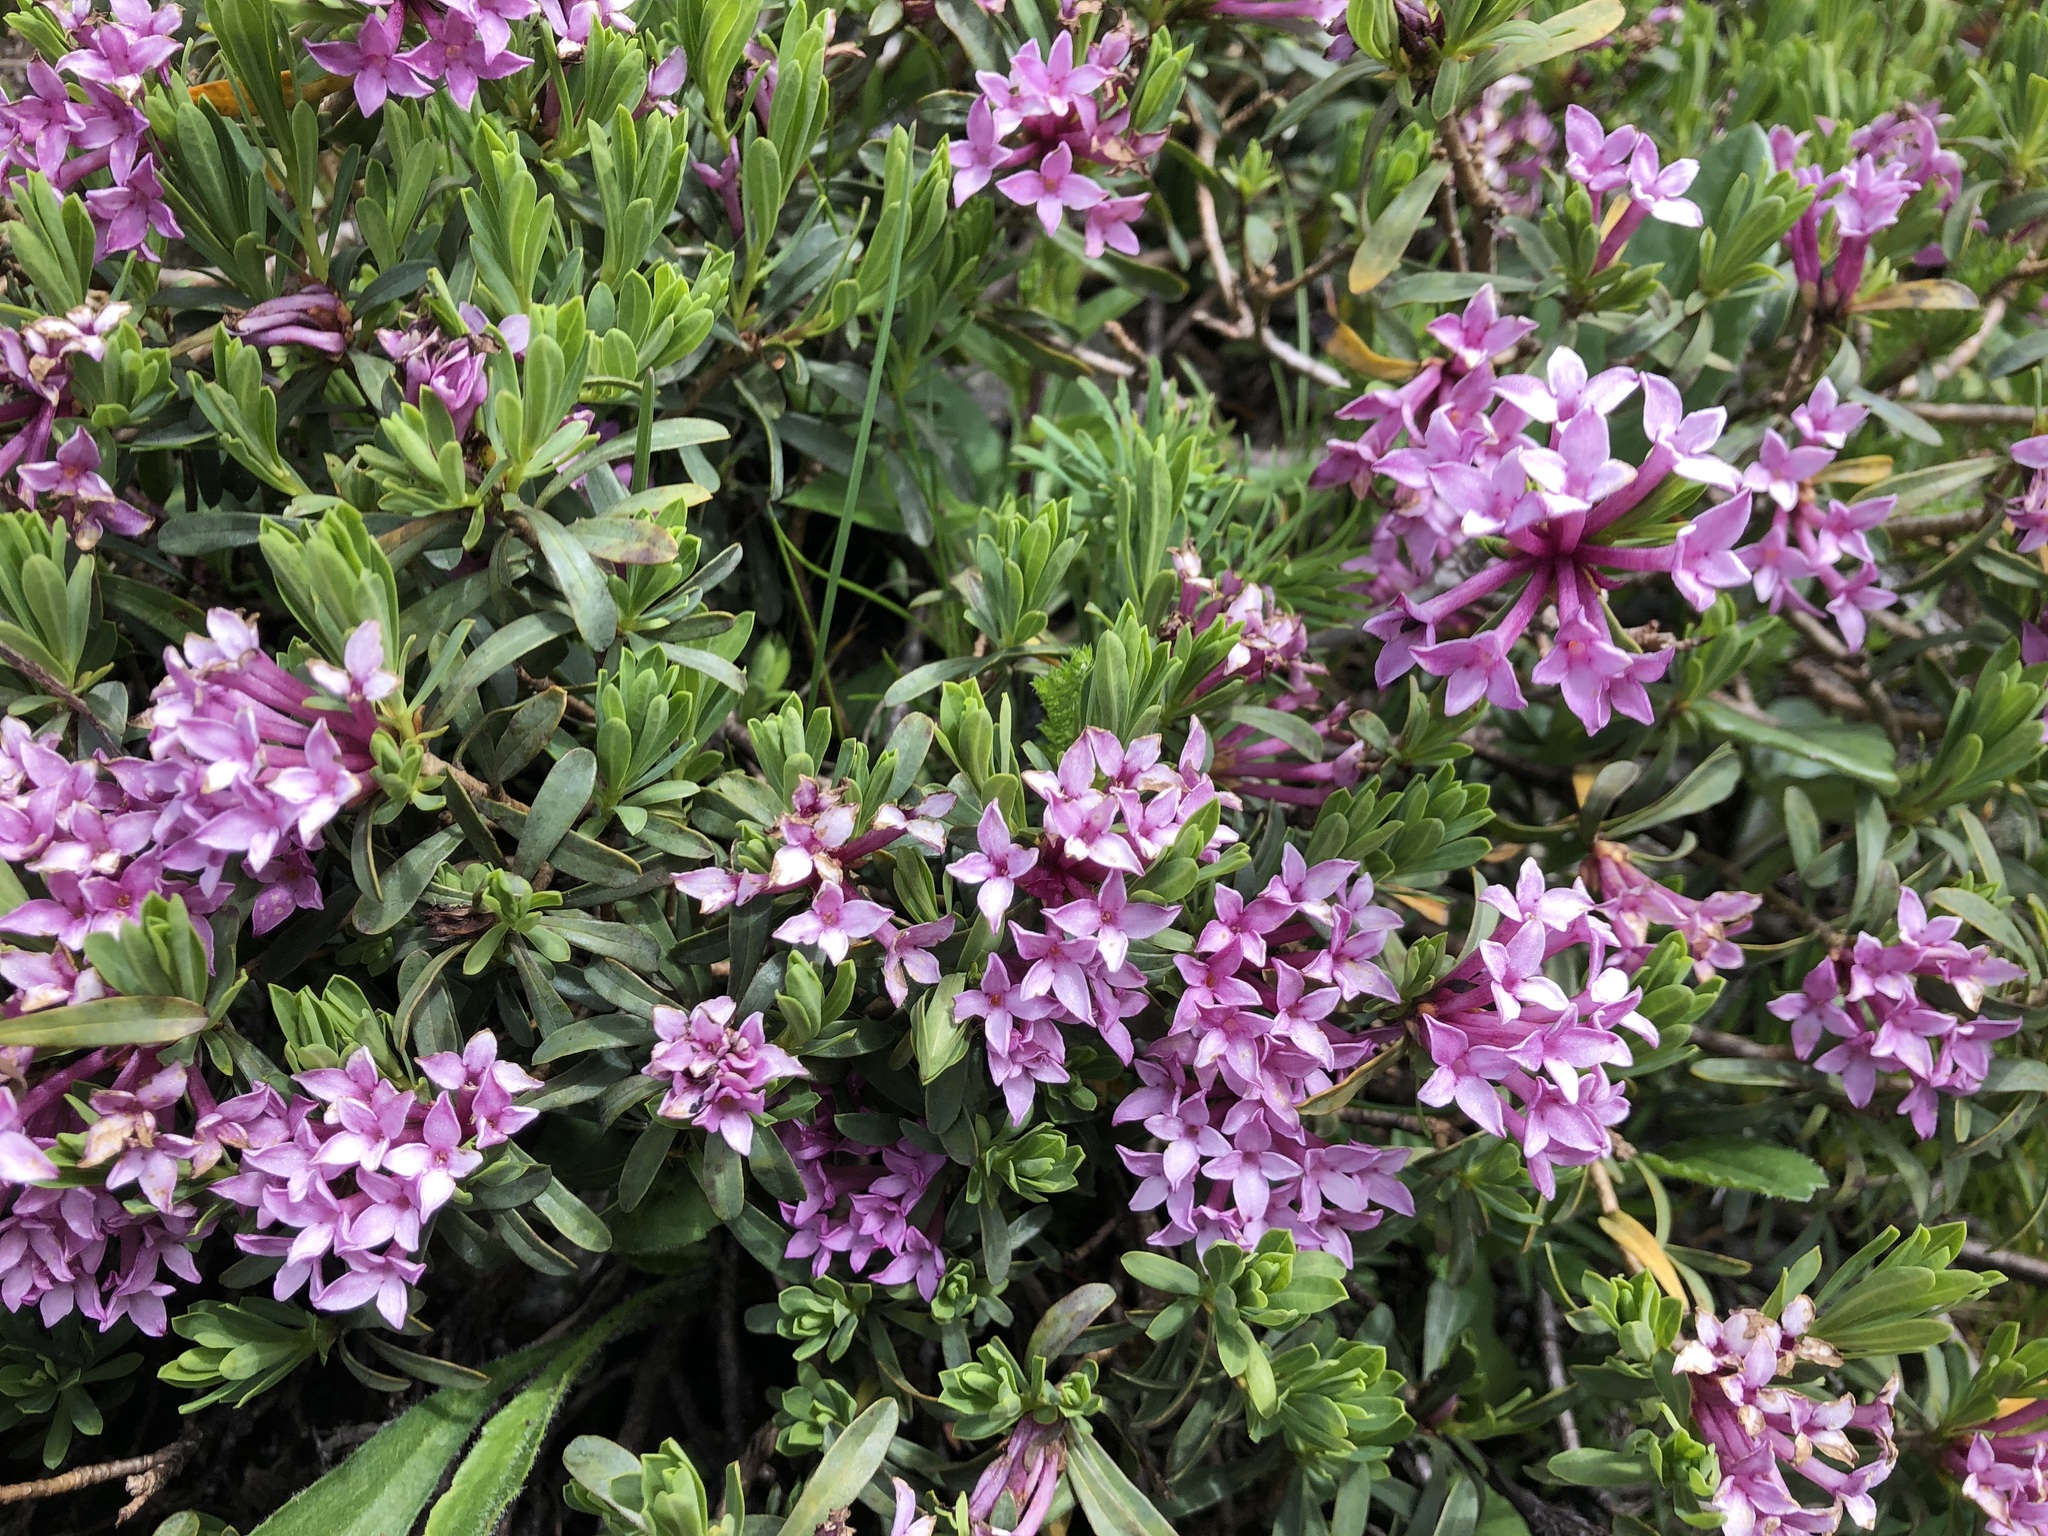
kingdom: Plantae
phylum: Tracheophyta
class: Magnoliopsida
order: Malvales
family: Thymelaeaceae
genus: Daphne
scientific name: Daphne striata
